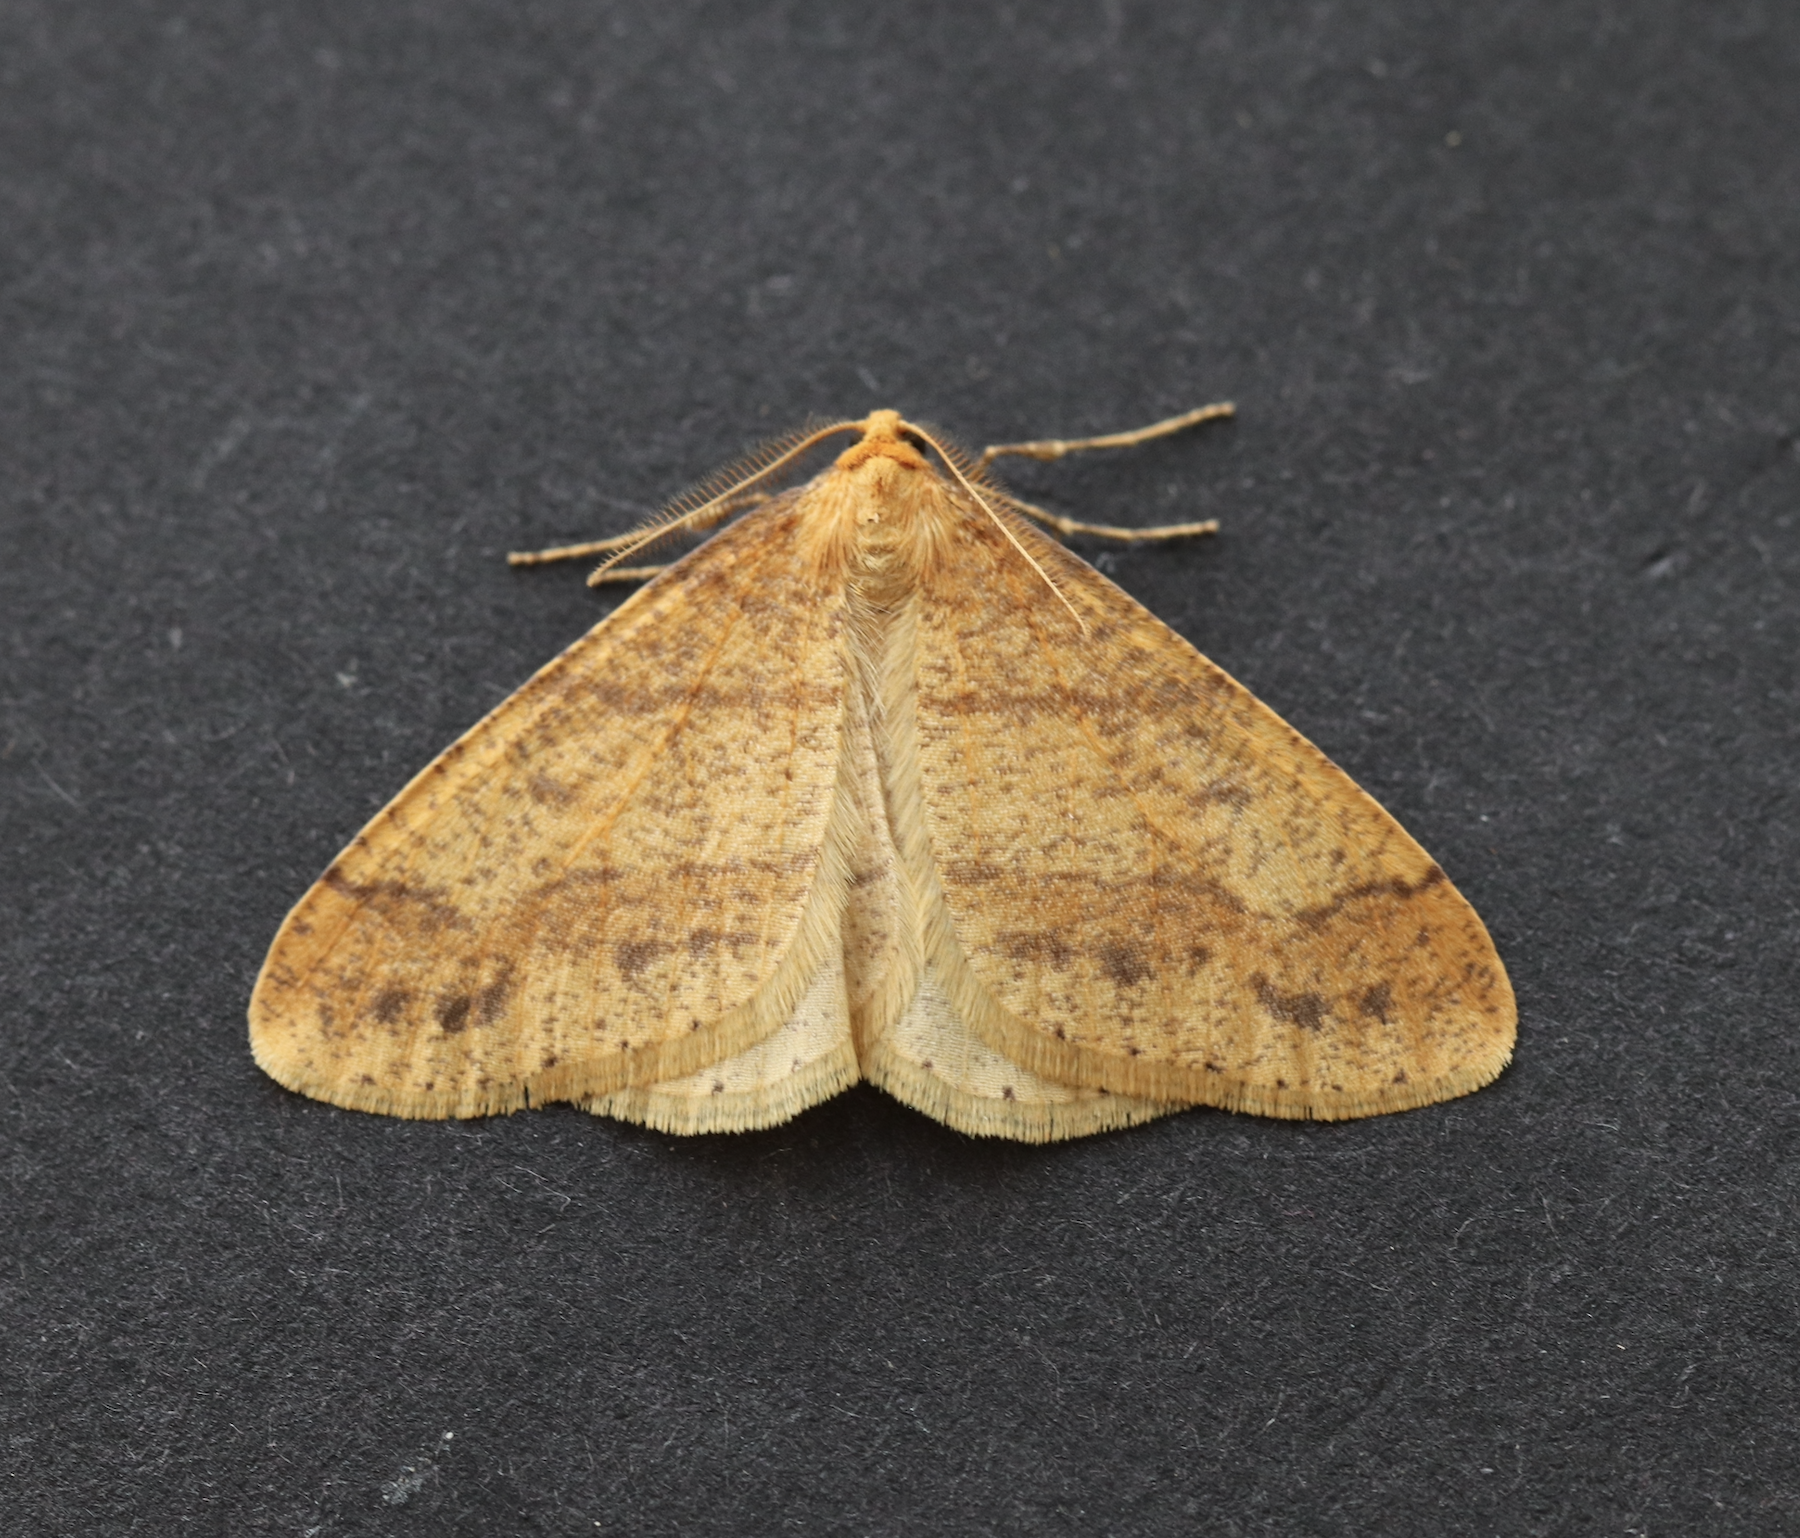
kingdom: Animalia
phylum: Arthropoda
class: Insecta
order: Lepidoptera
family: Geometridae
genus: Agriopis
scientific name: Agriopis aurantiaria
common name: Scarce umber
